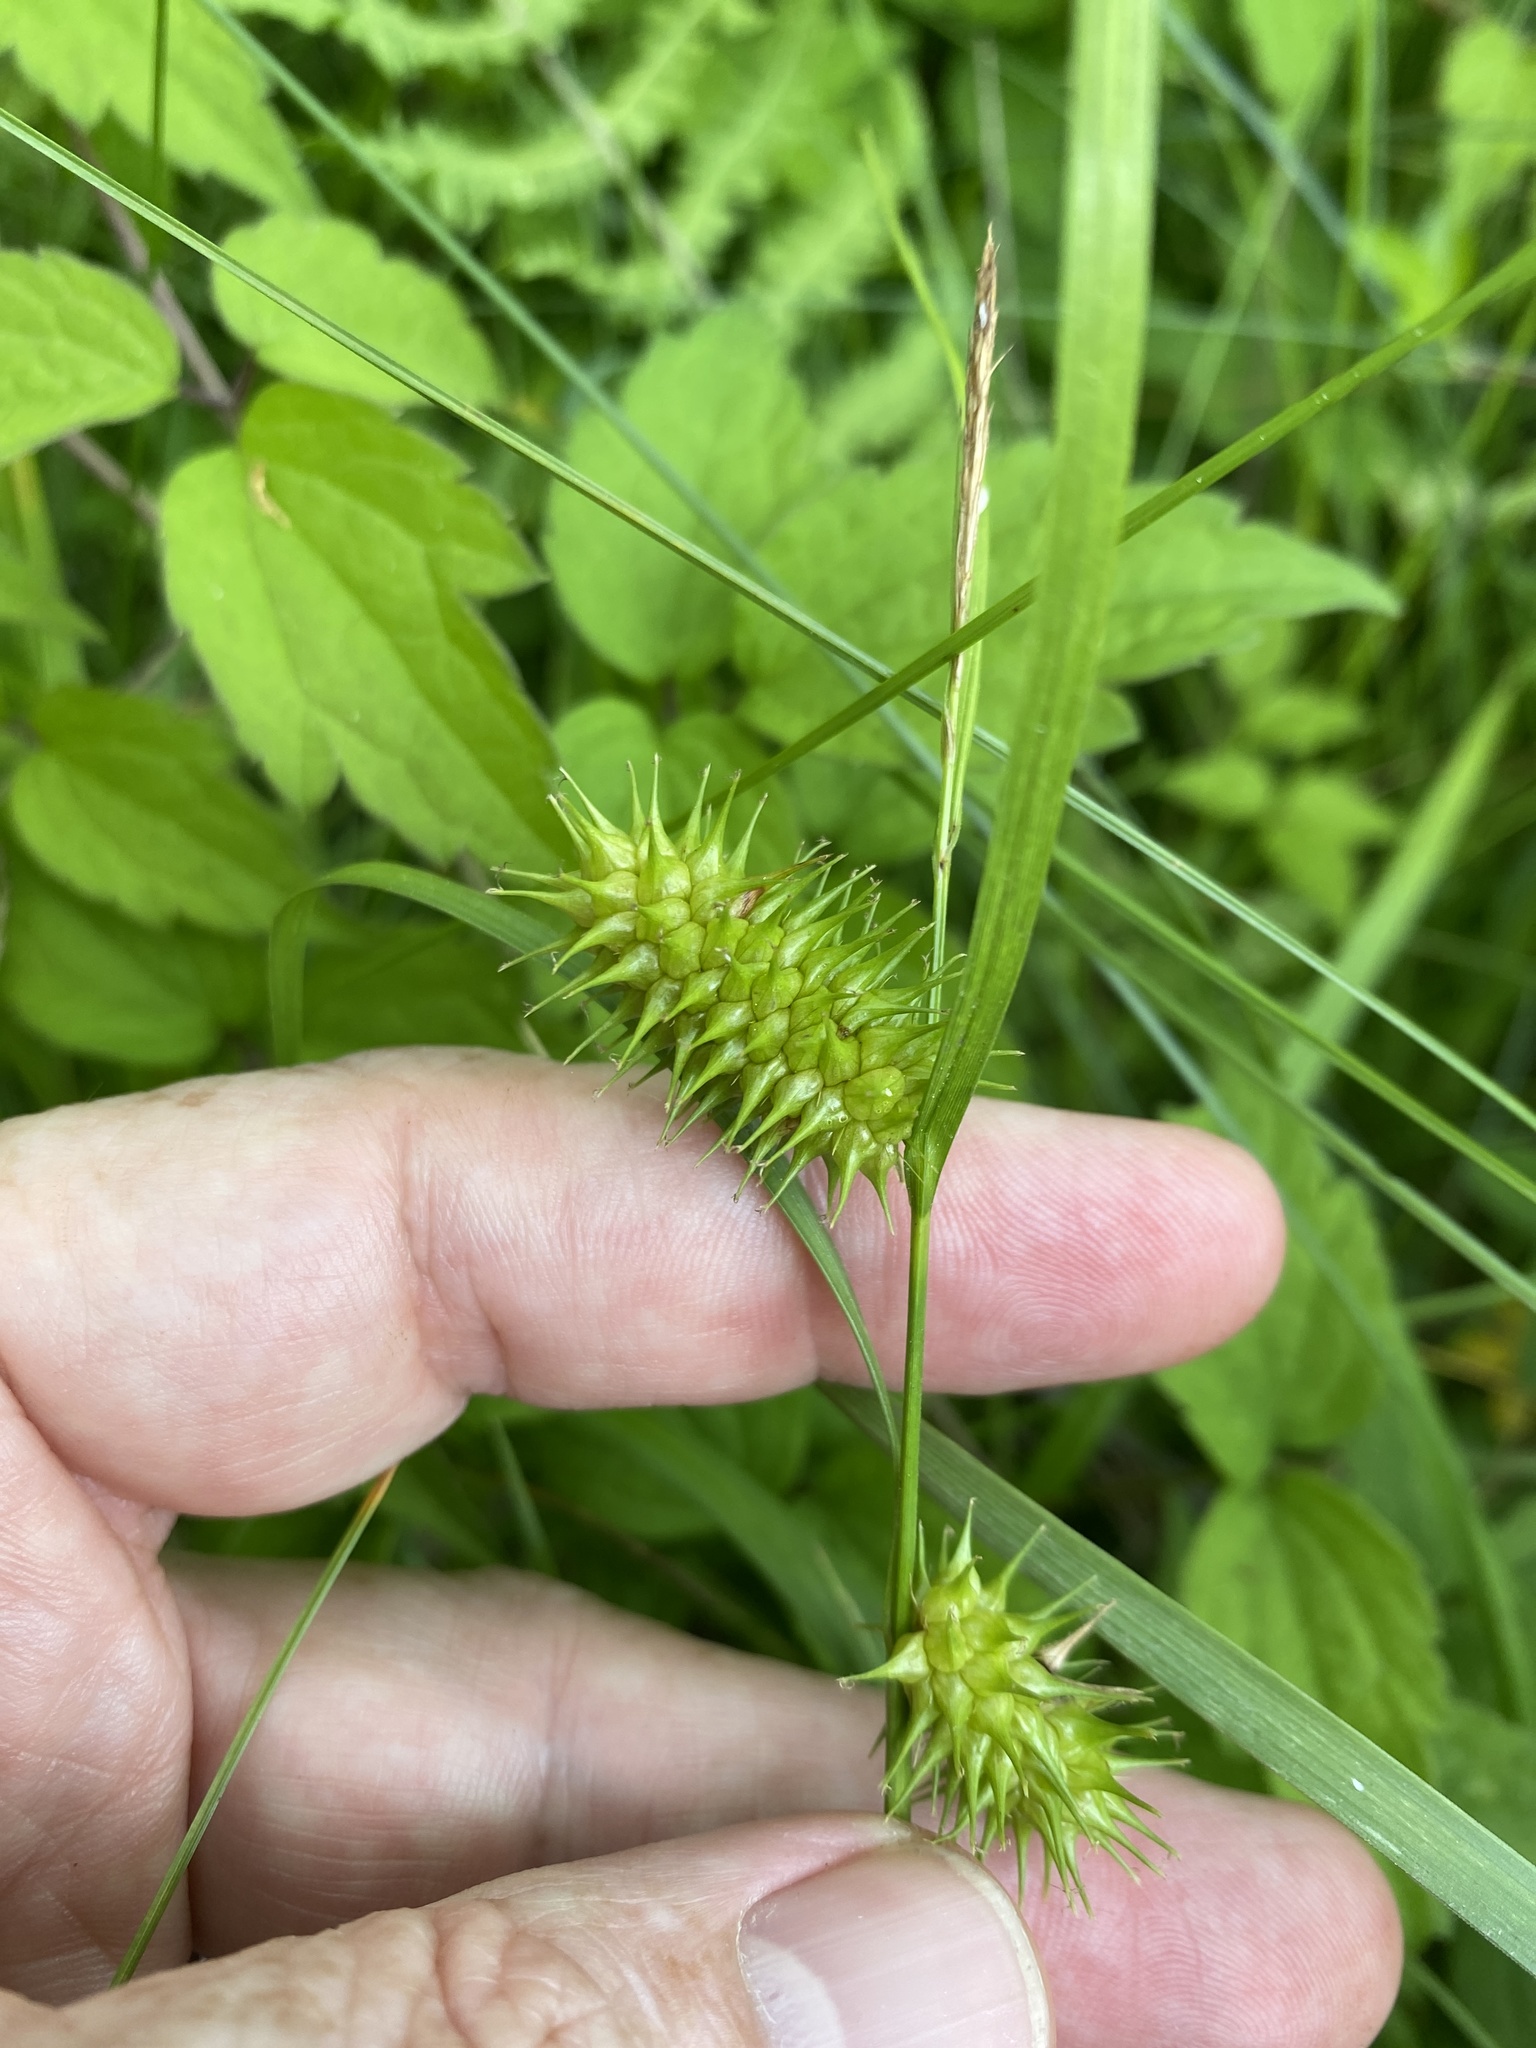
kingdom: Plantae
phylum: Tracheophyta
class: Liliopsida
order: Poales
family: Cyperaceae
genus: Carex
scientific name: Carex lurida
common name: Sallow sedge
